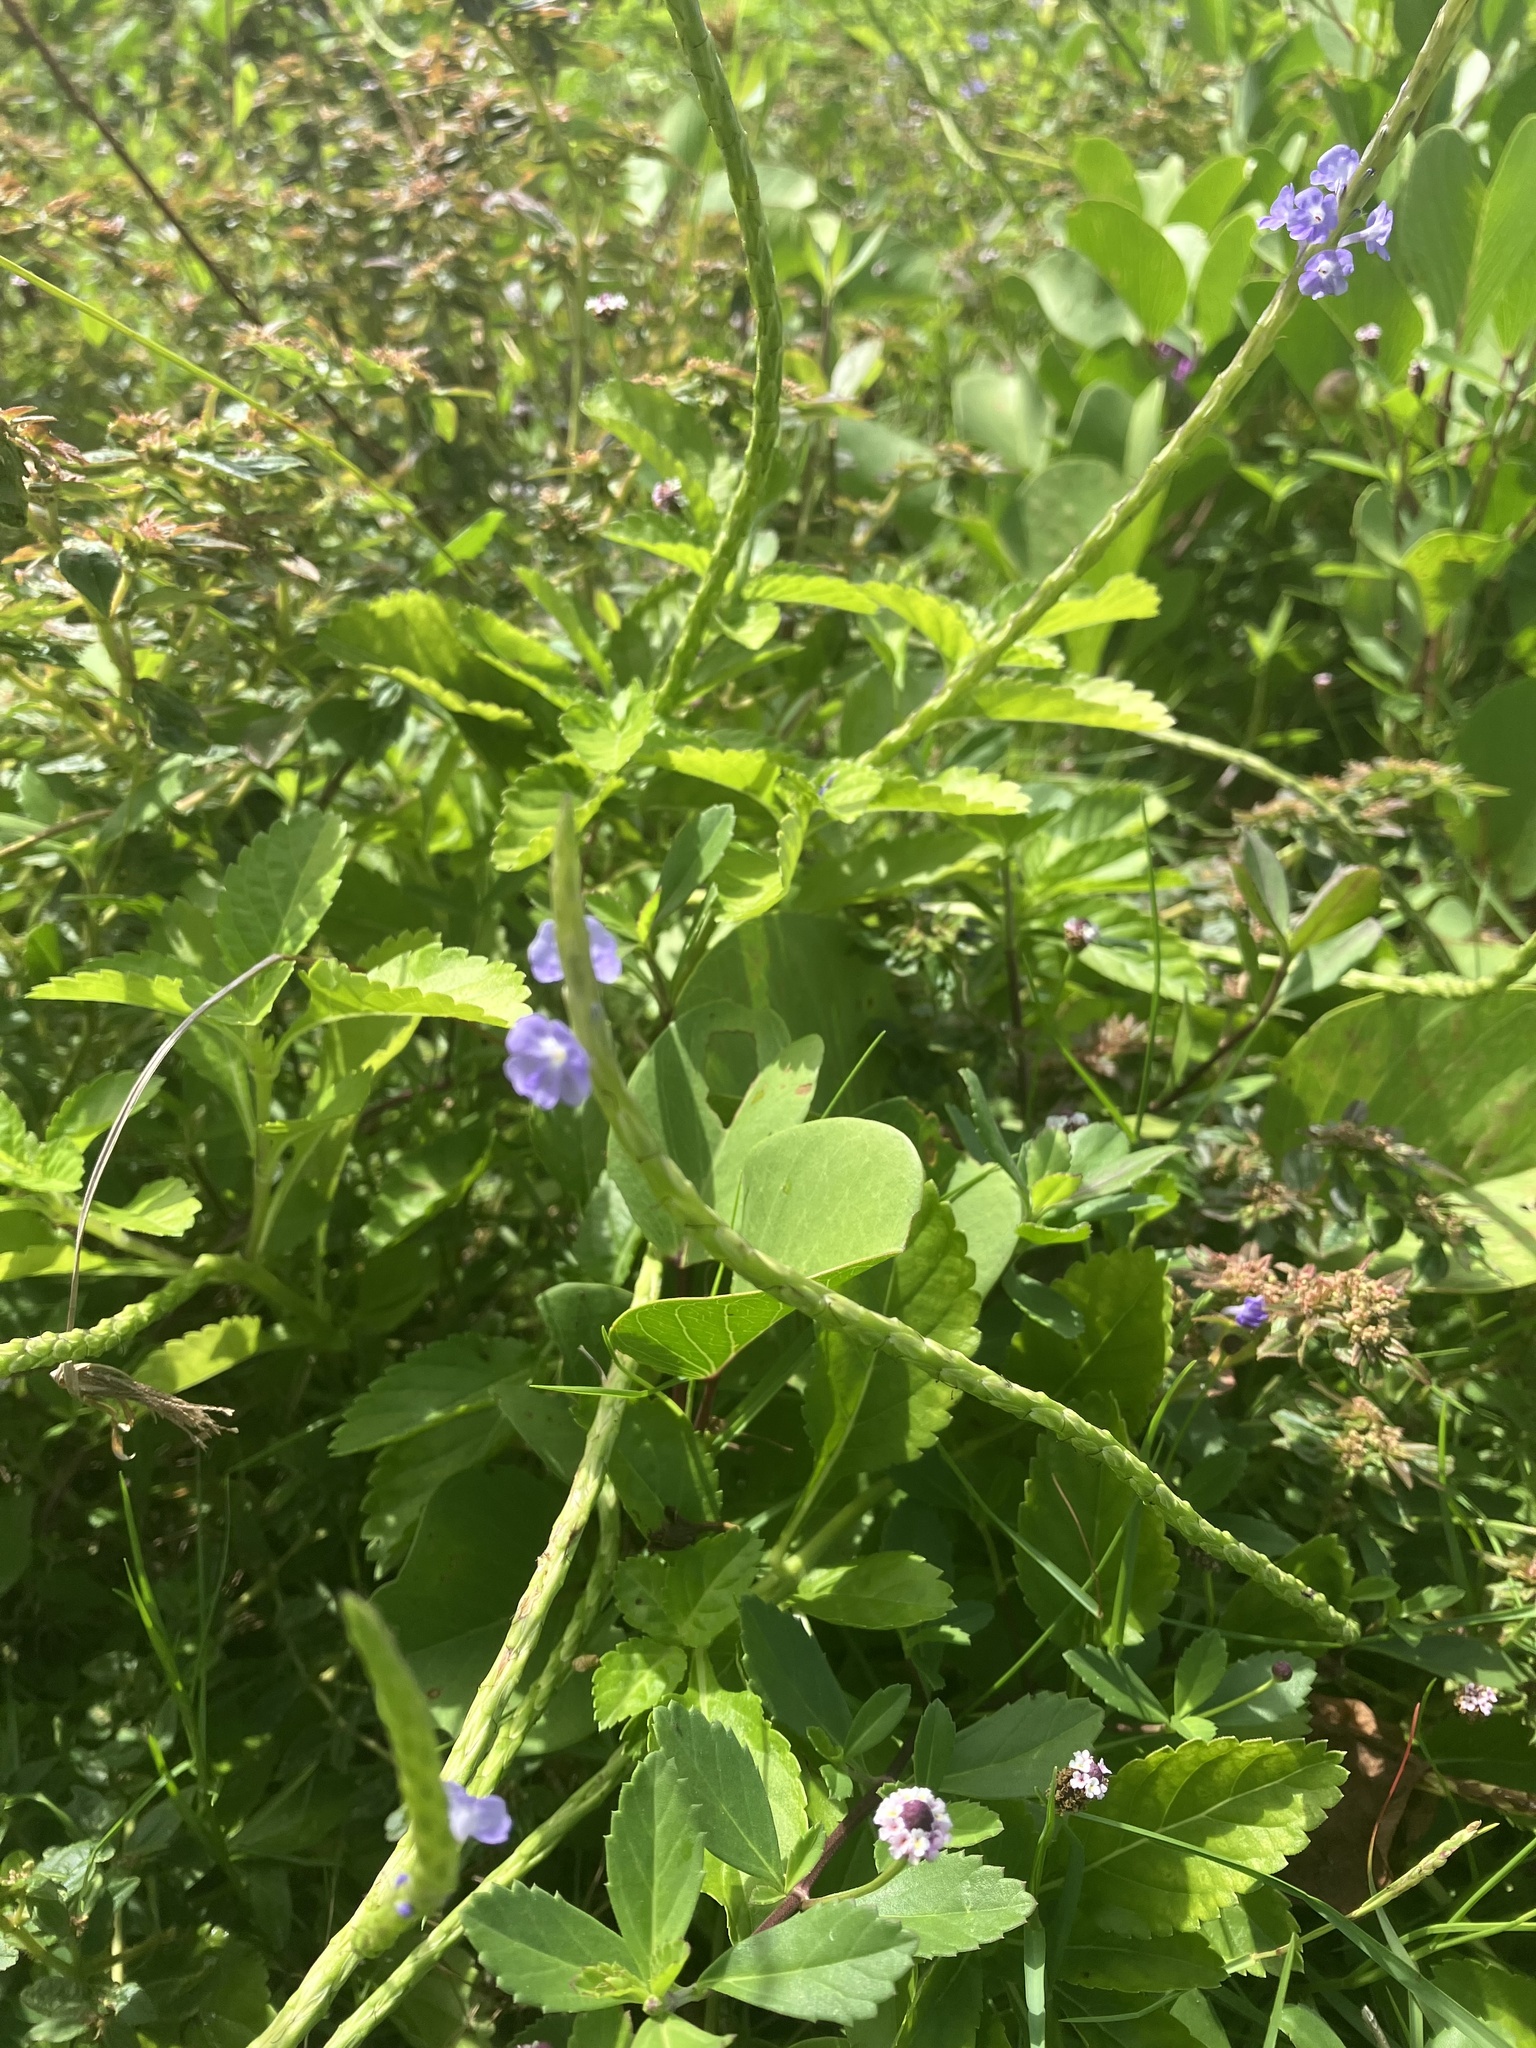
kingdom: Plantae
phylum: Tracheophyta
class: Magnoliopsida
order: Lamiales
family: Verbenaceae
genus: Stachytarpheta
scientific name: Stachytarpheta jamaicensis
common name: Light-blue snakeweed
